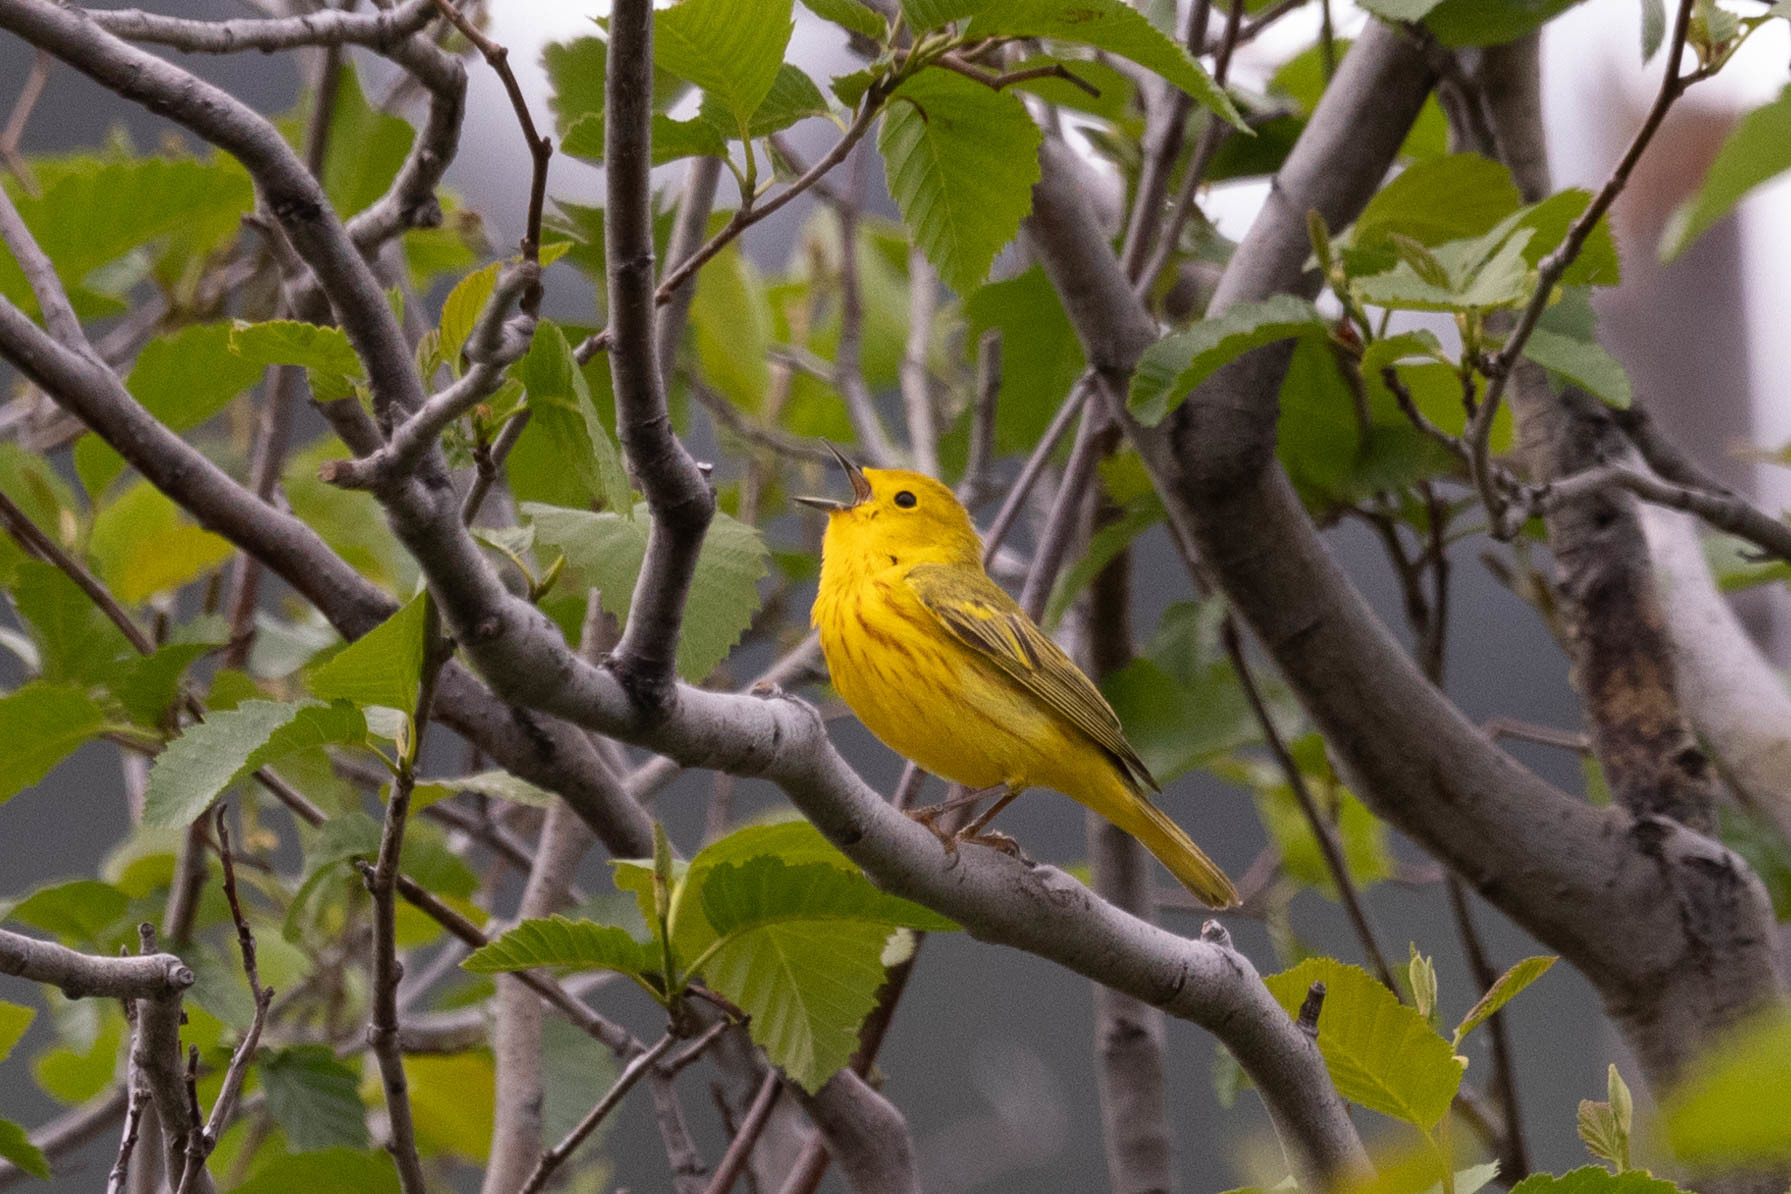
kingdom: Animalia
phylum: Chordata
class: Aves
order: Passeriformes
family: Parulidae
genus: Setophaga
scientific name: Setophaga petechia
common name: Yellow warbler
